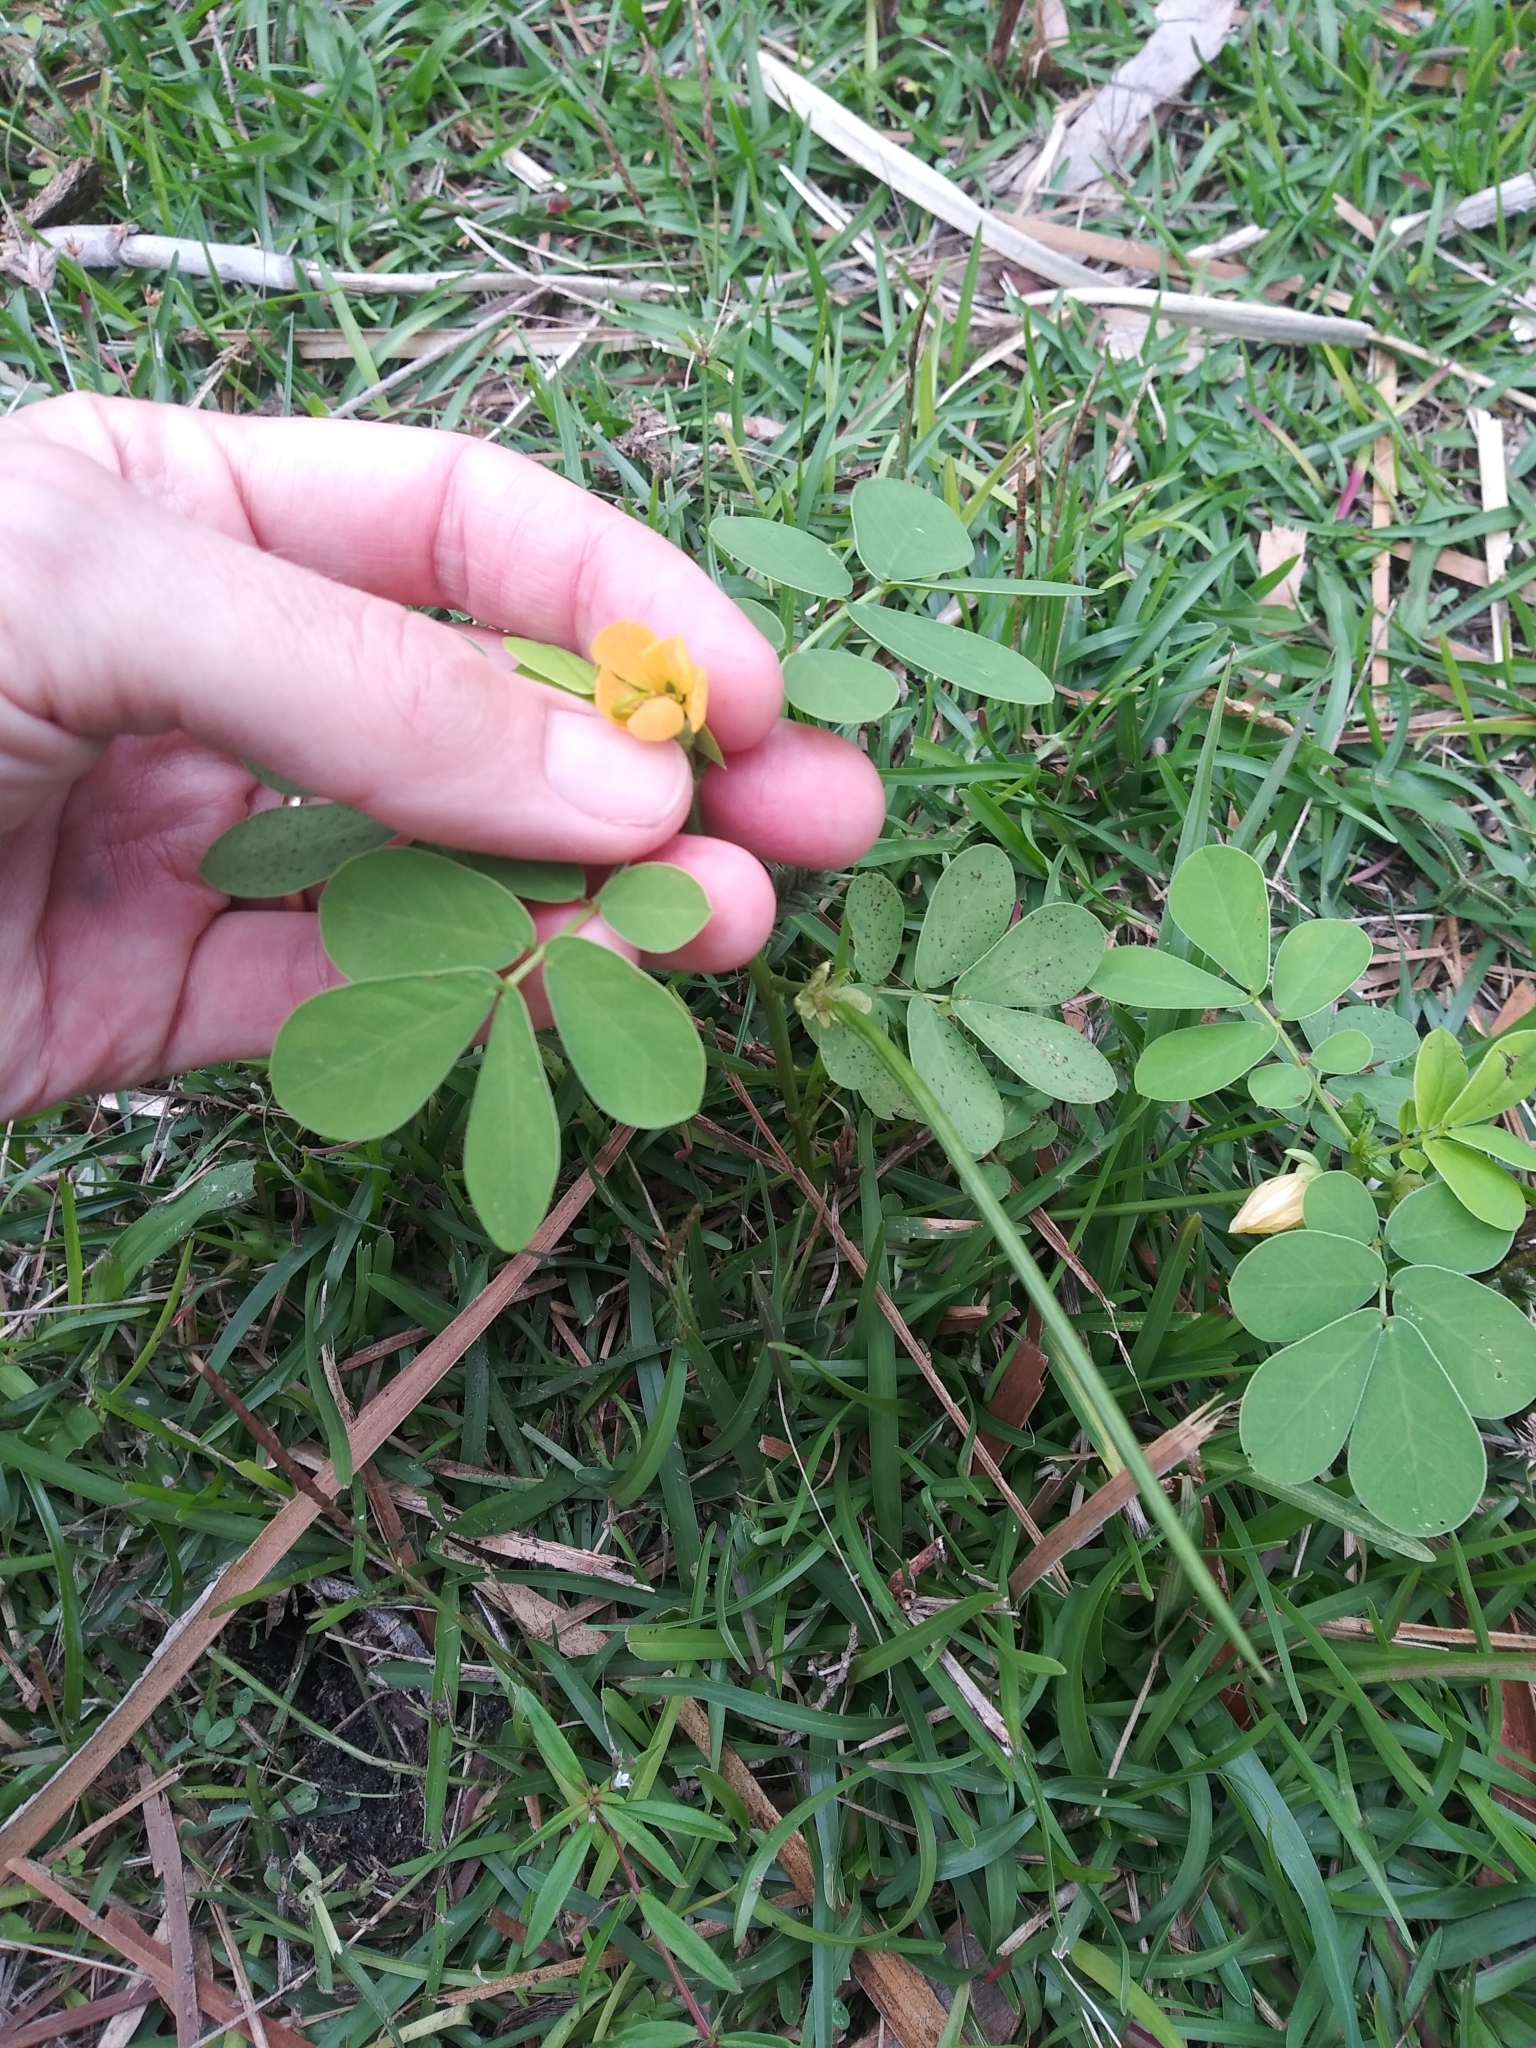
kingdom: Plantae
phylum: Tracheophyta
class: Magnoliopsida
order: Fabales
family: Fabaceae
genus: Senna
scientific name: Senna obtusifolia
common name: Java-bean
